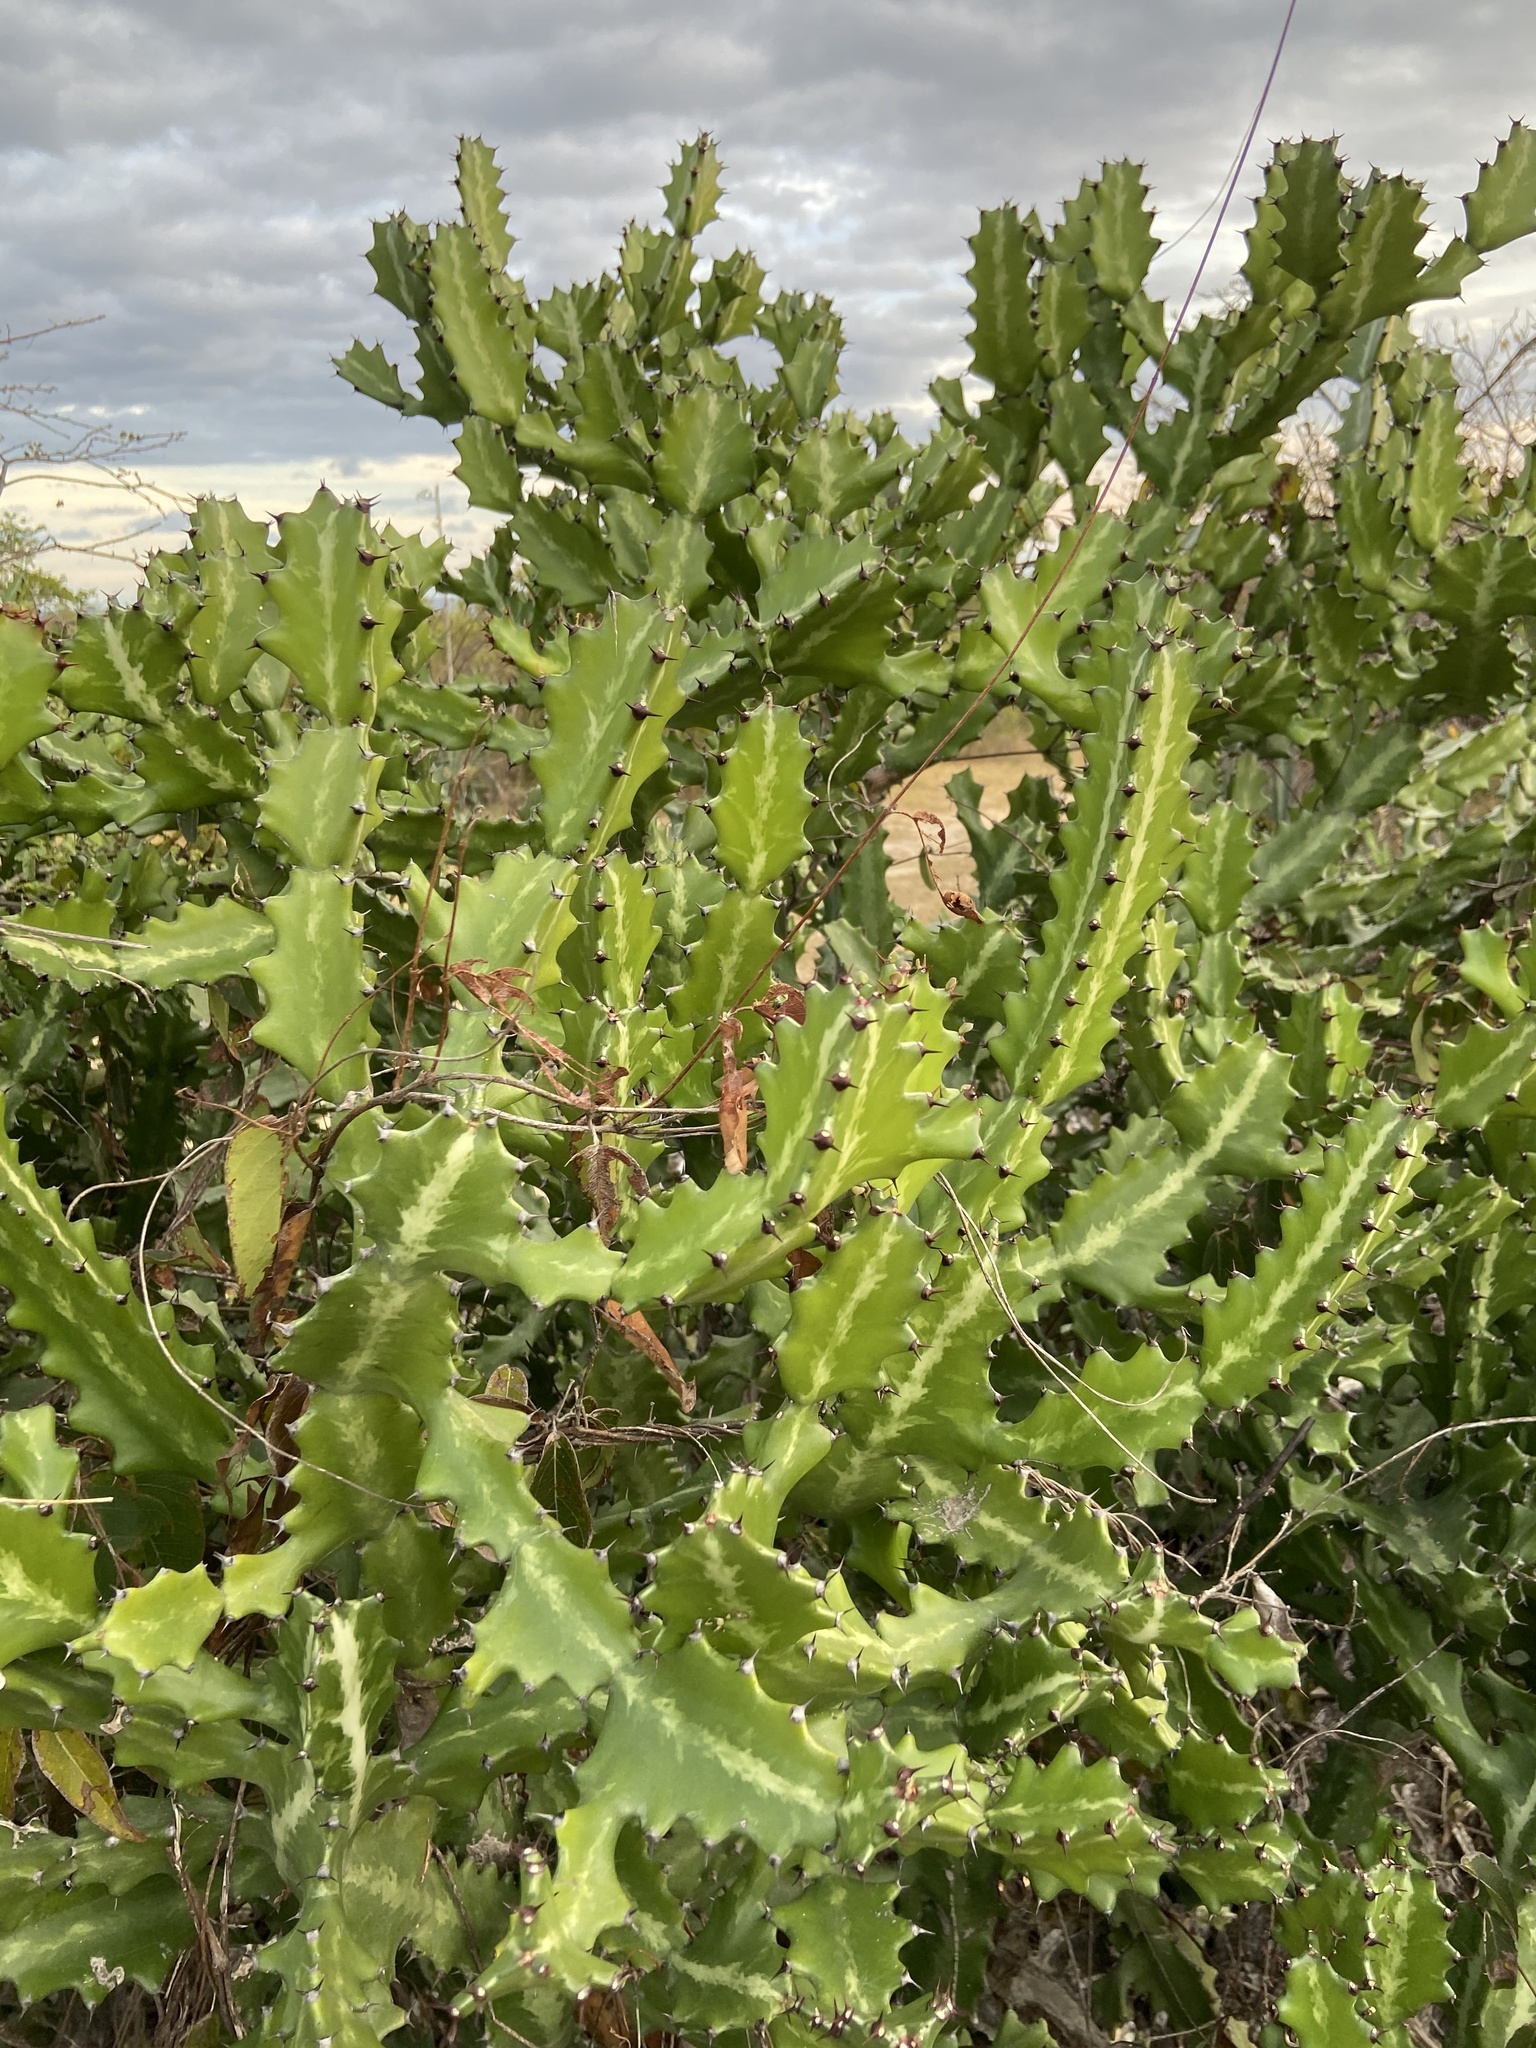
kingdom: Plantae
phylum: Tracheophyta
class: Magnoliopsida
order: Malpighiales
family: Euphorbiaceae
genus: Euphorbia
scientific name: Euphorbia lactea
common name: Mottled spurge
